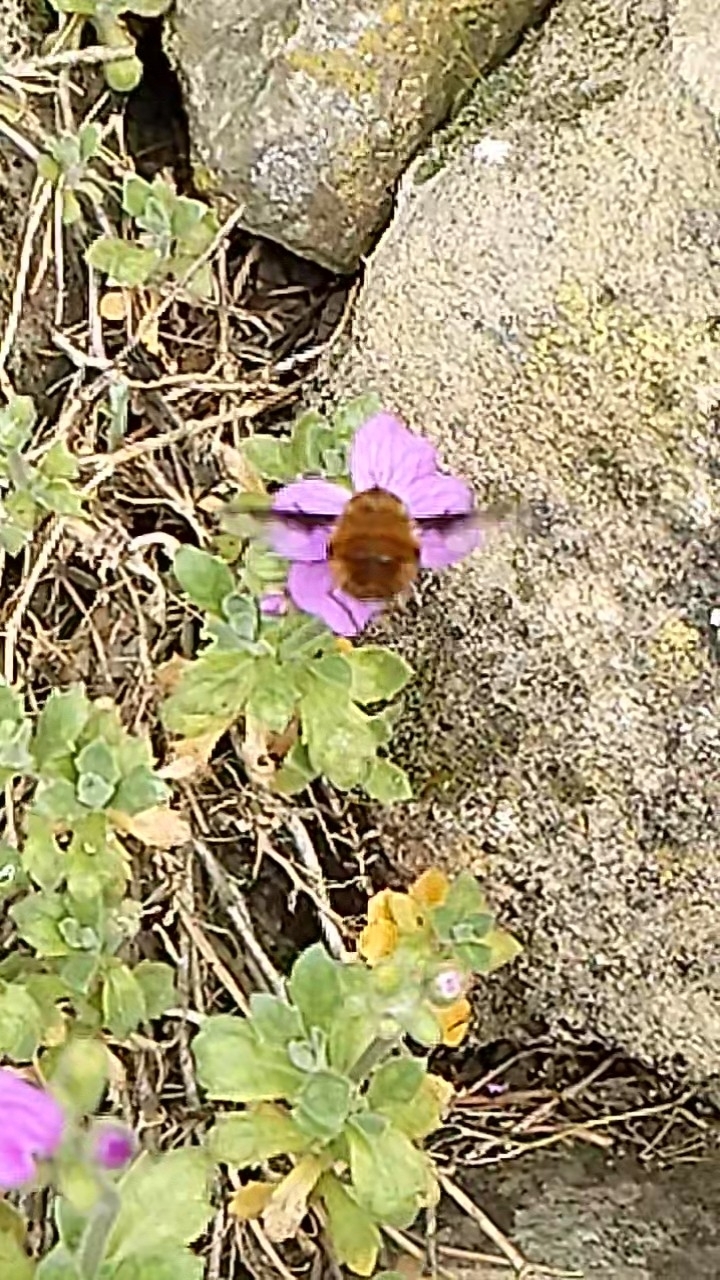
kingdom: Animalia
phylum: Arthropoda
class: Insecta
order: Diptera
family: Bombyliidae
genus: Bombylius
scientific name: Bombylius major
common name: Bee fly
